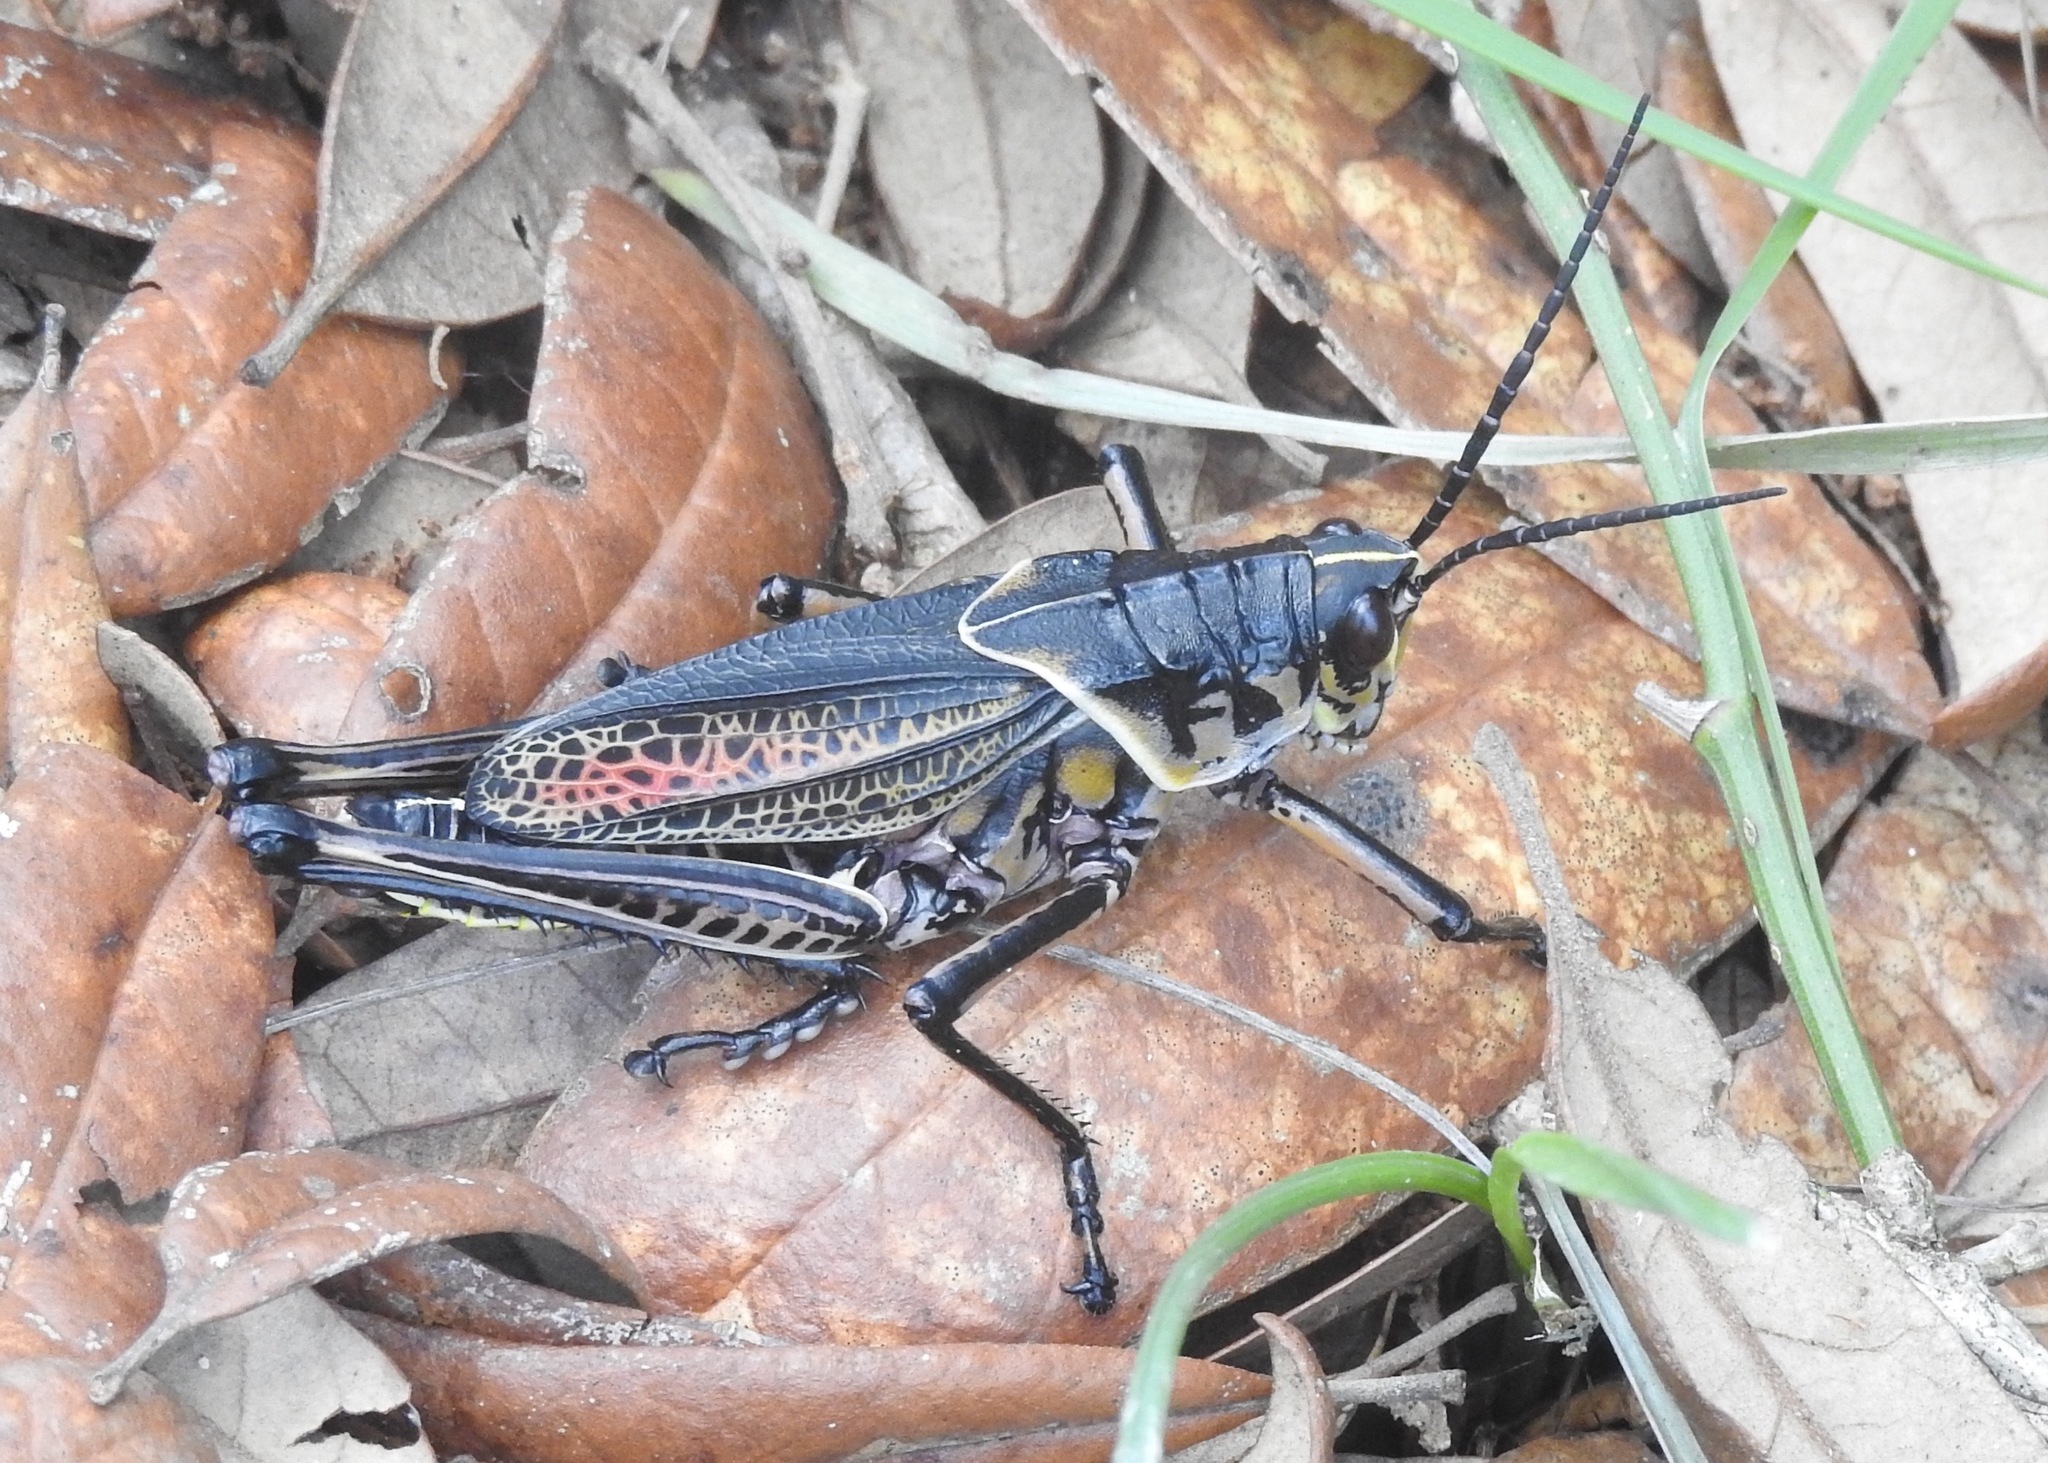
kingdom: Animalia
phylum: Arthropoda
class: Insecta
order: Orthoptera
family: Romaleidae
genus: Romalea
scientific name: Romalea microptera
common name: Eastern lubber grasshopper
